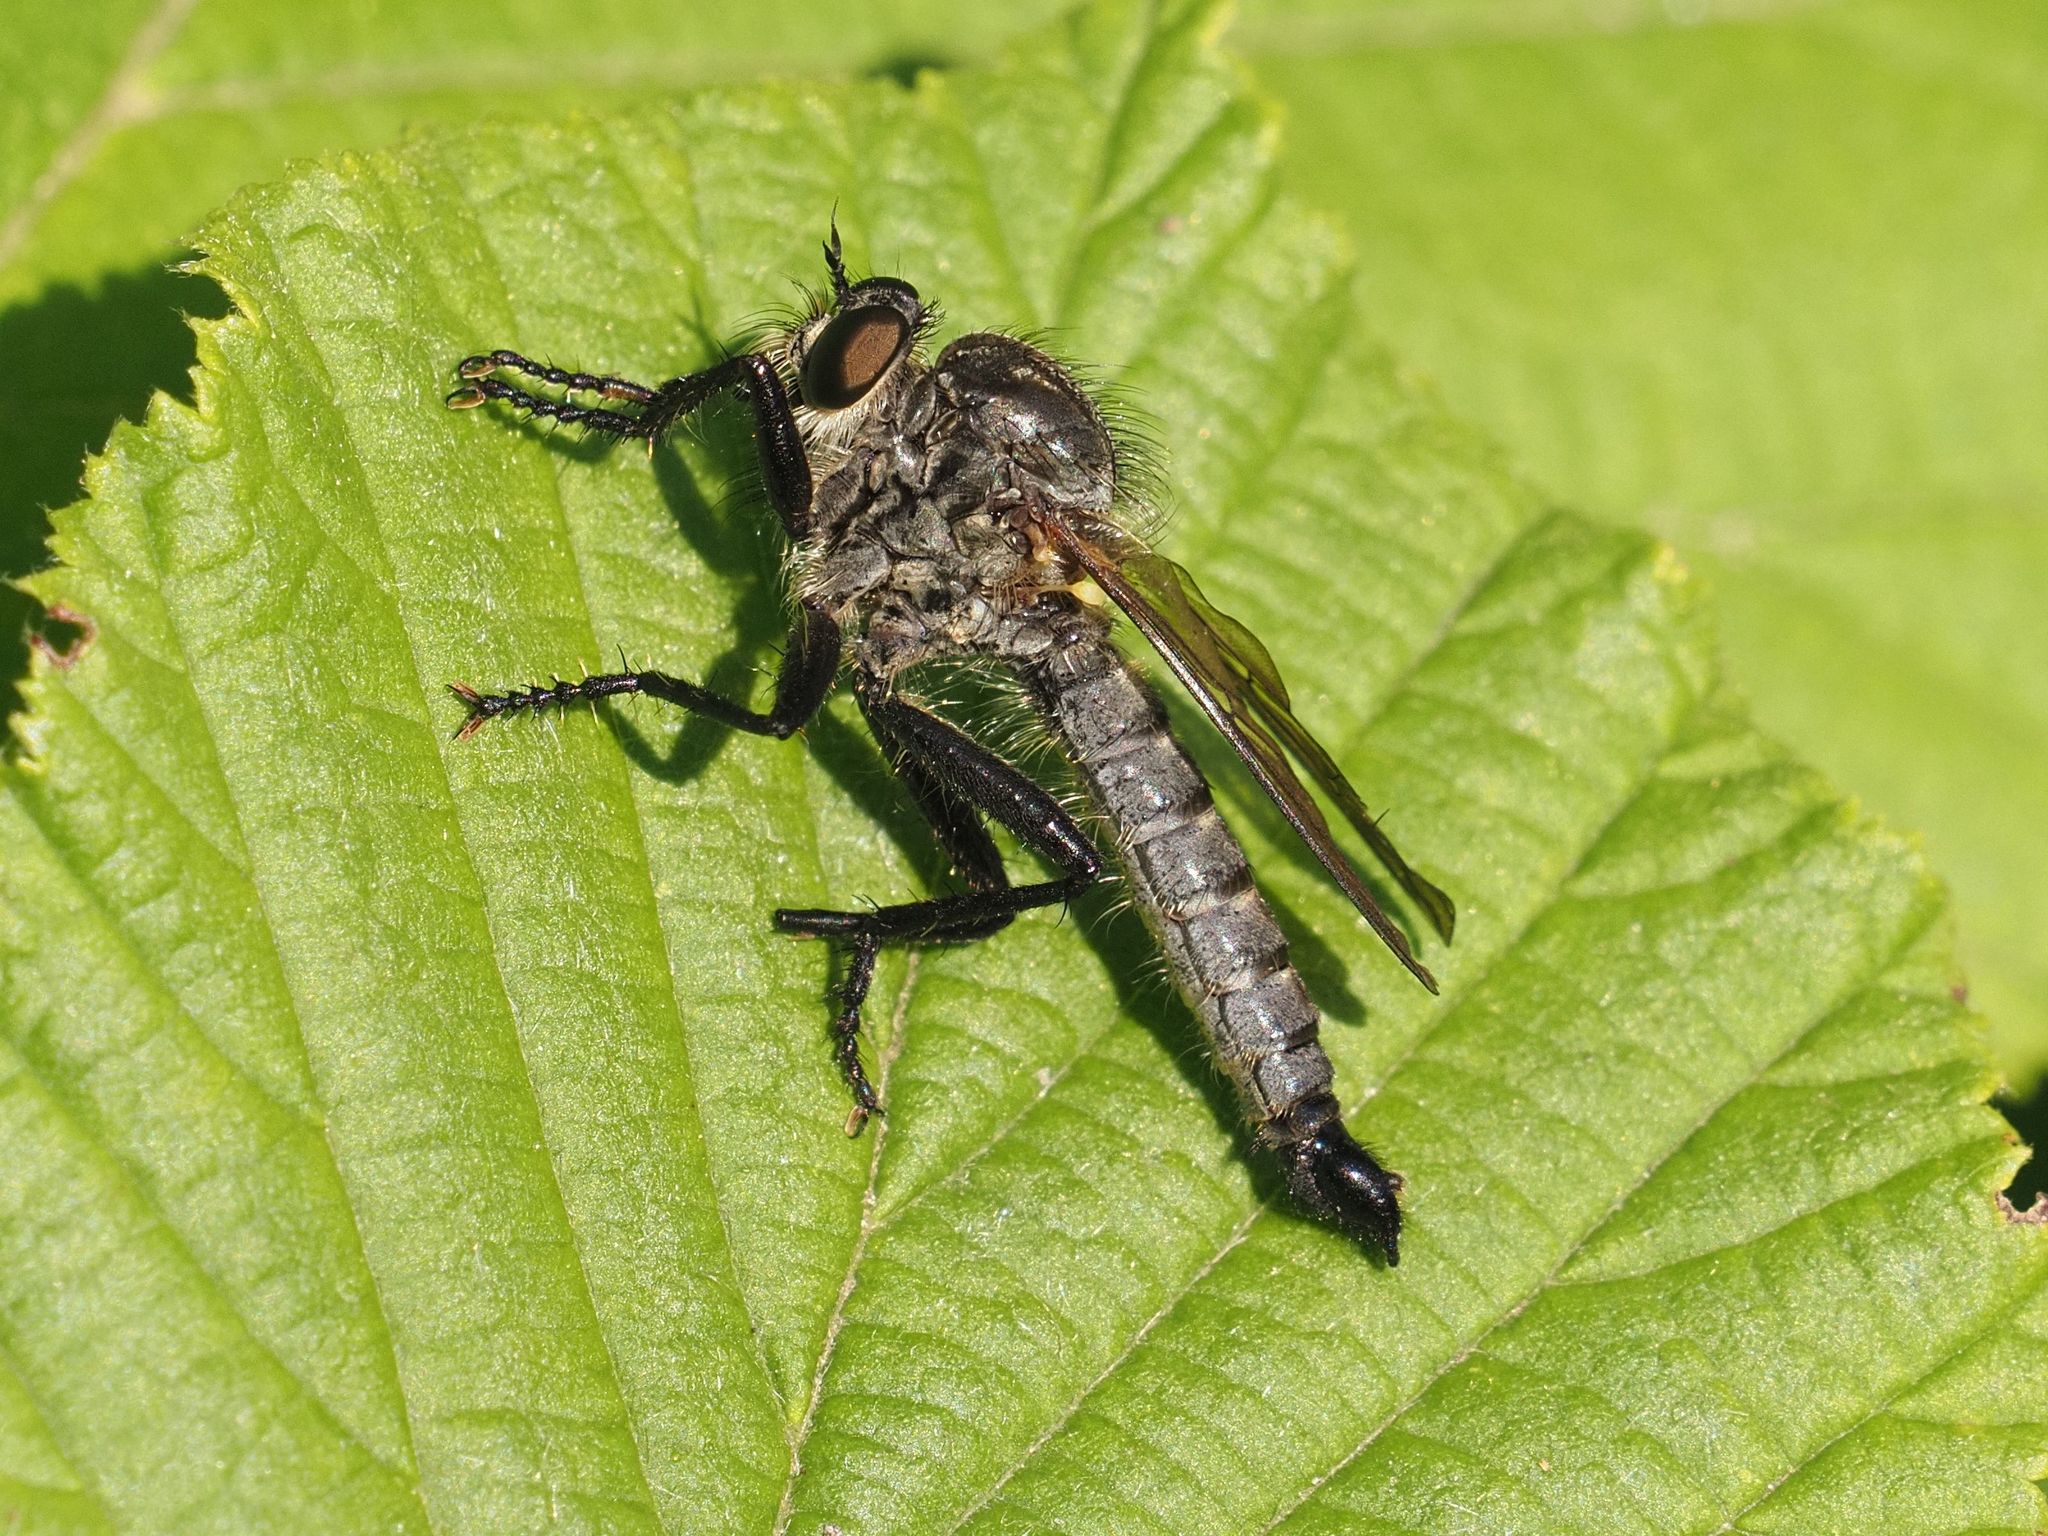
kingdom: Animalia
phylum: Arthropoda
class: Insecta
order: Diptera
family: Asilidae
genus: Didysmachus
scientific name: Didysmachus picipes
